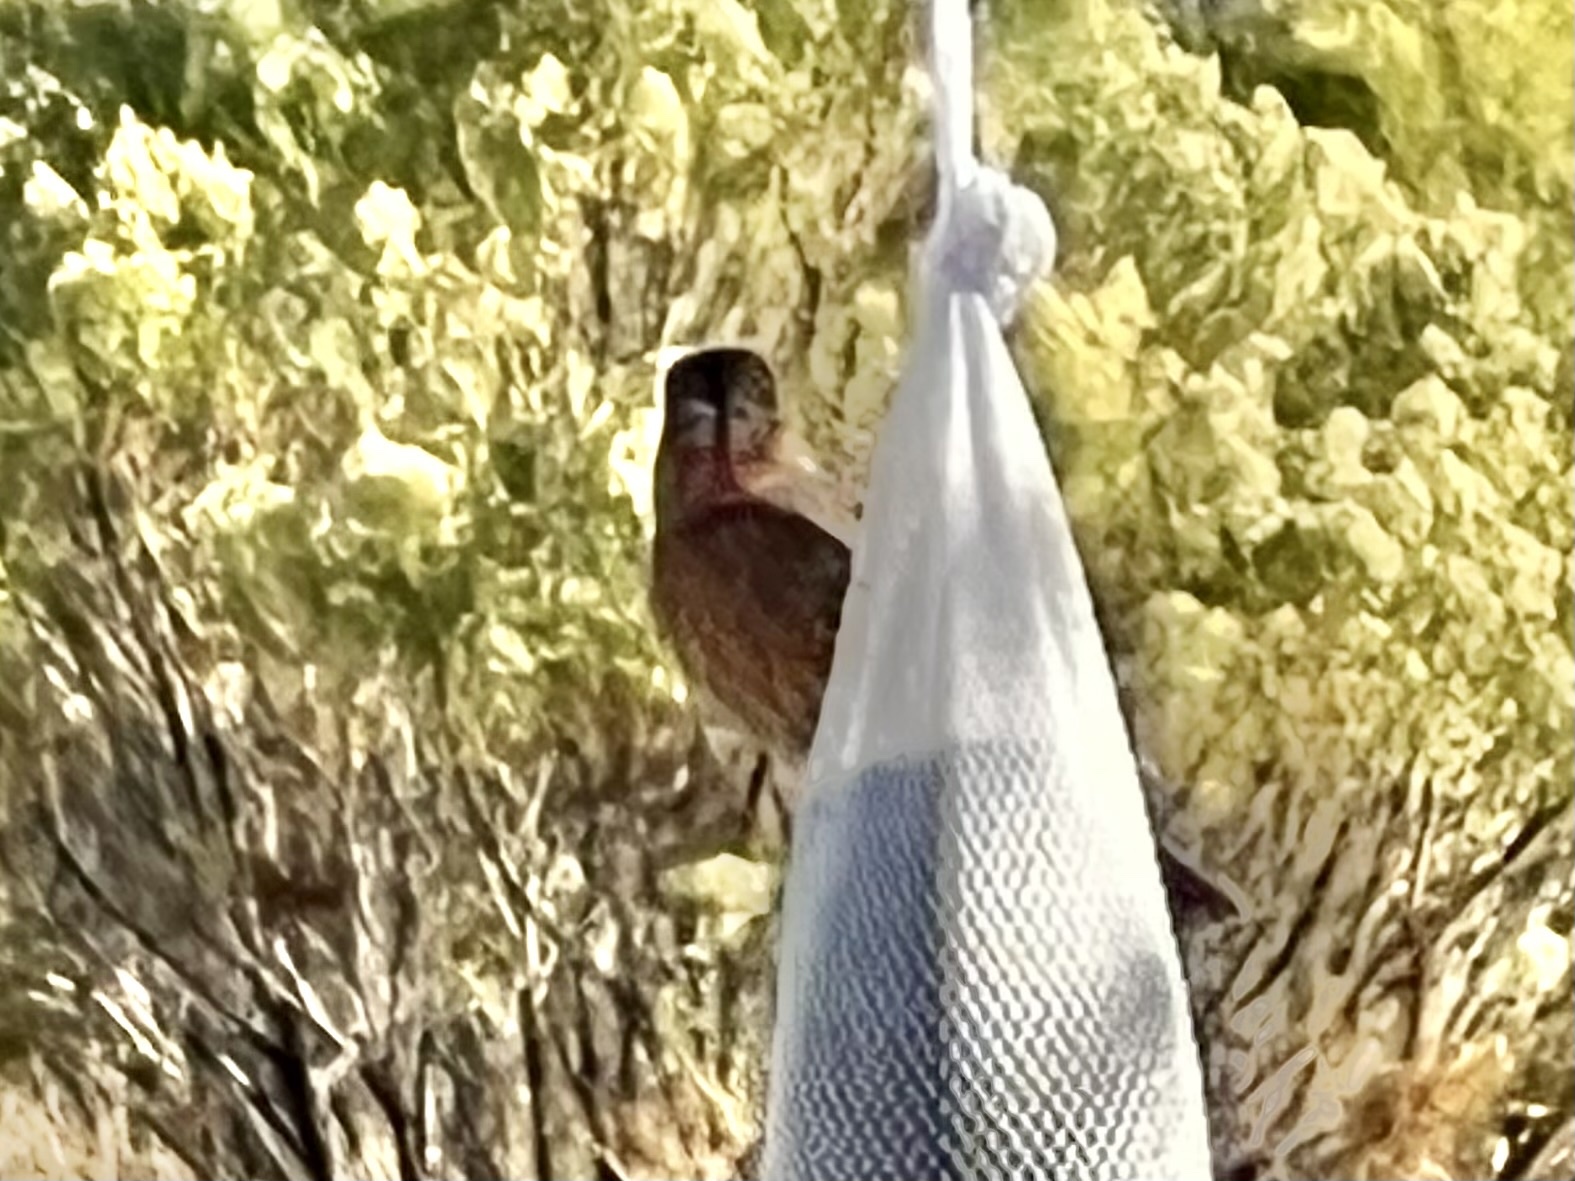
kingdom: Animalia
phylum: Chordata
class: Aves
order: Passeriformes
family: Fringillidae
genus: Haemorhous
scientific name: Haemorhous mexicanus
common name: House finch
